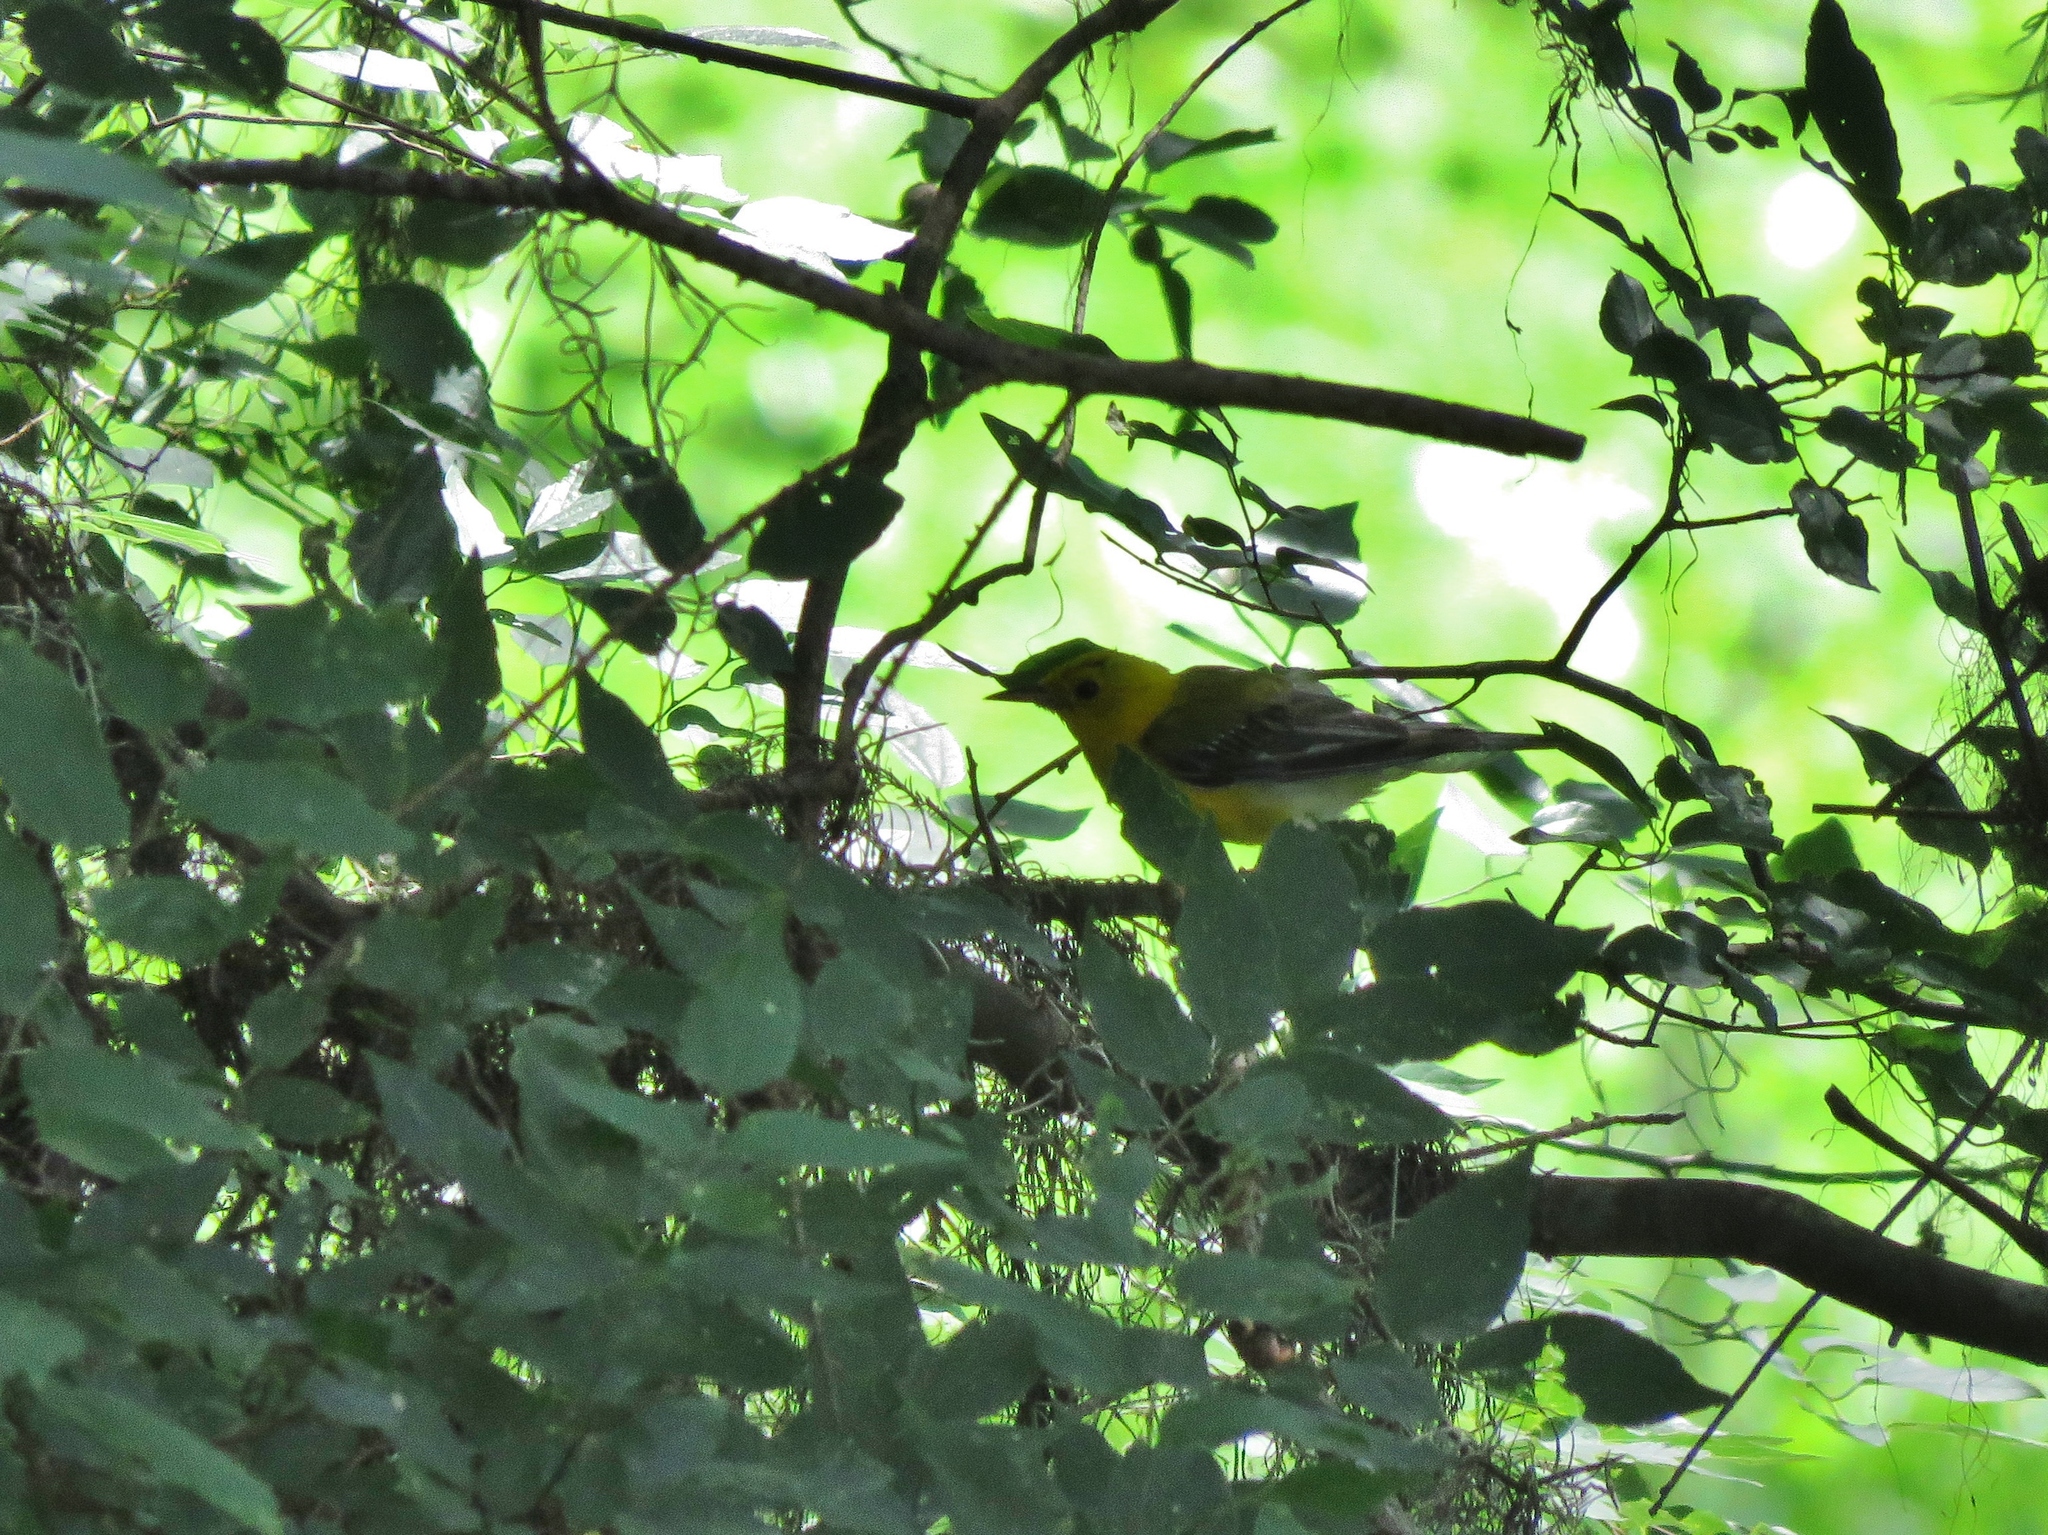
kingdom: Animalia
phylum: Chordata
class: Aves
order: Passeriformes
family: Parulidae
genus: Protonotaria
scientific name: Protonotaria citrea
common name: Prothonotary warbler
